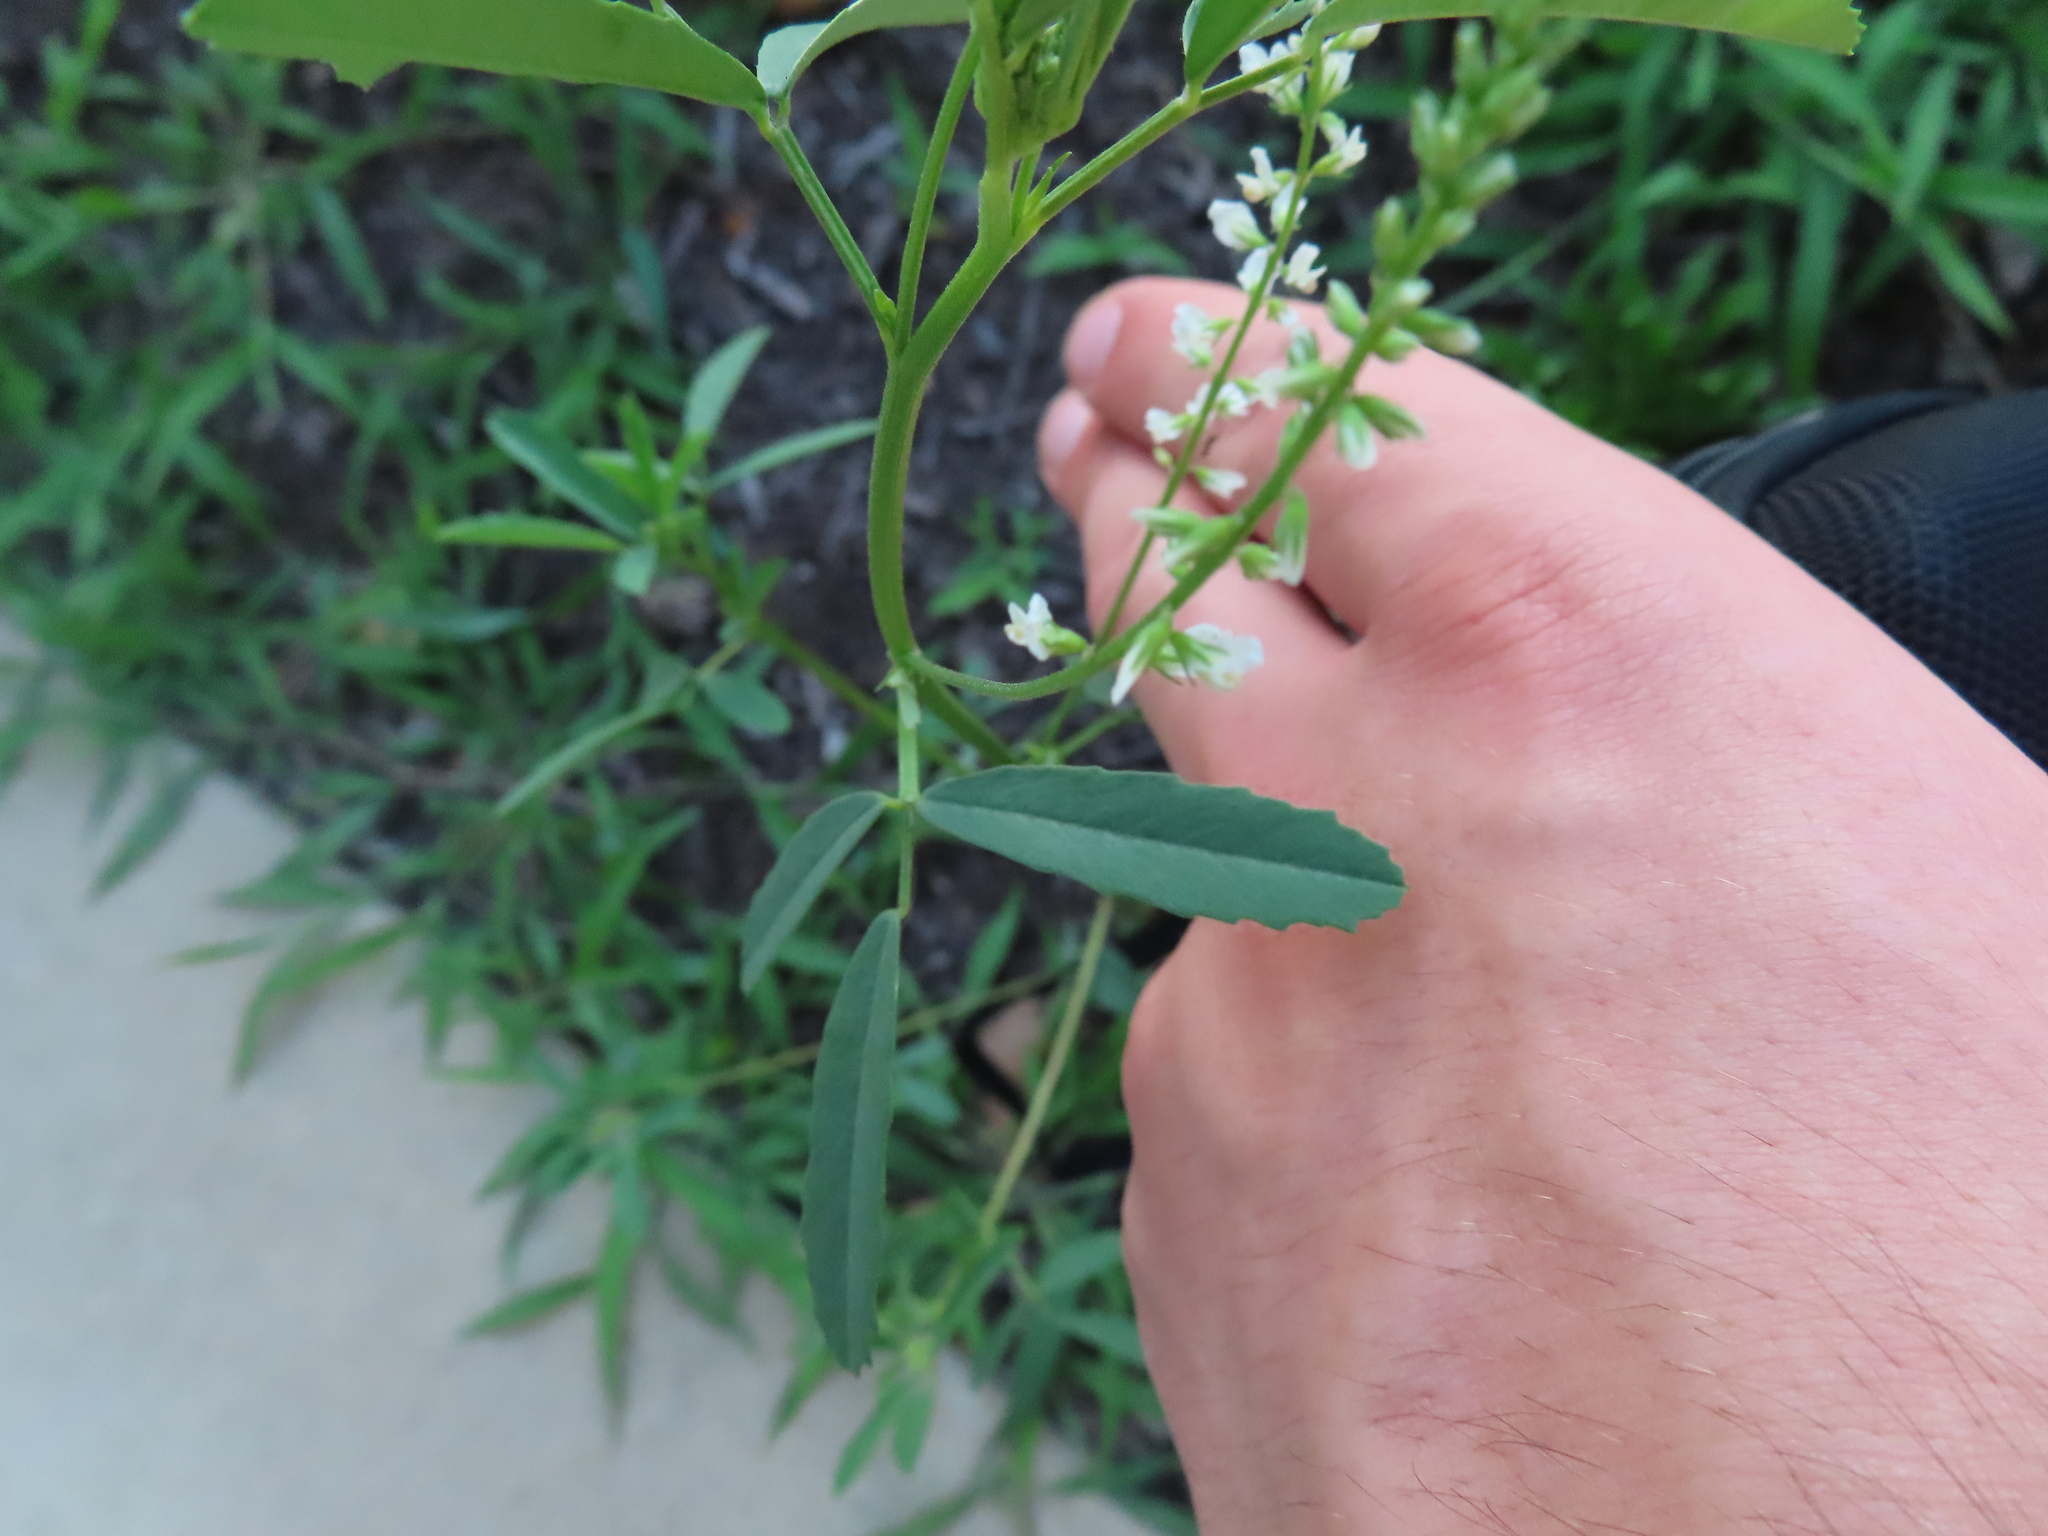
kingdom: Plantae
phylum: Tracheophyta
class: Magnoliopsida
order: Fabales
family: Fabaceae
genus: Melilotus
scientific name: Melilotus albus
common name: White melilot
